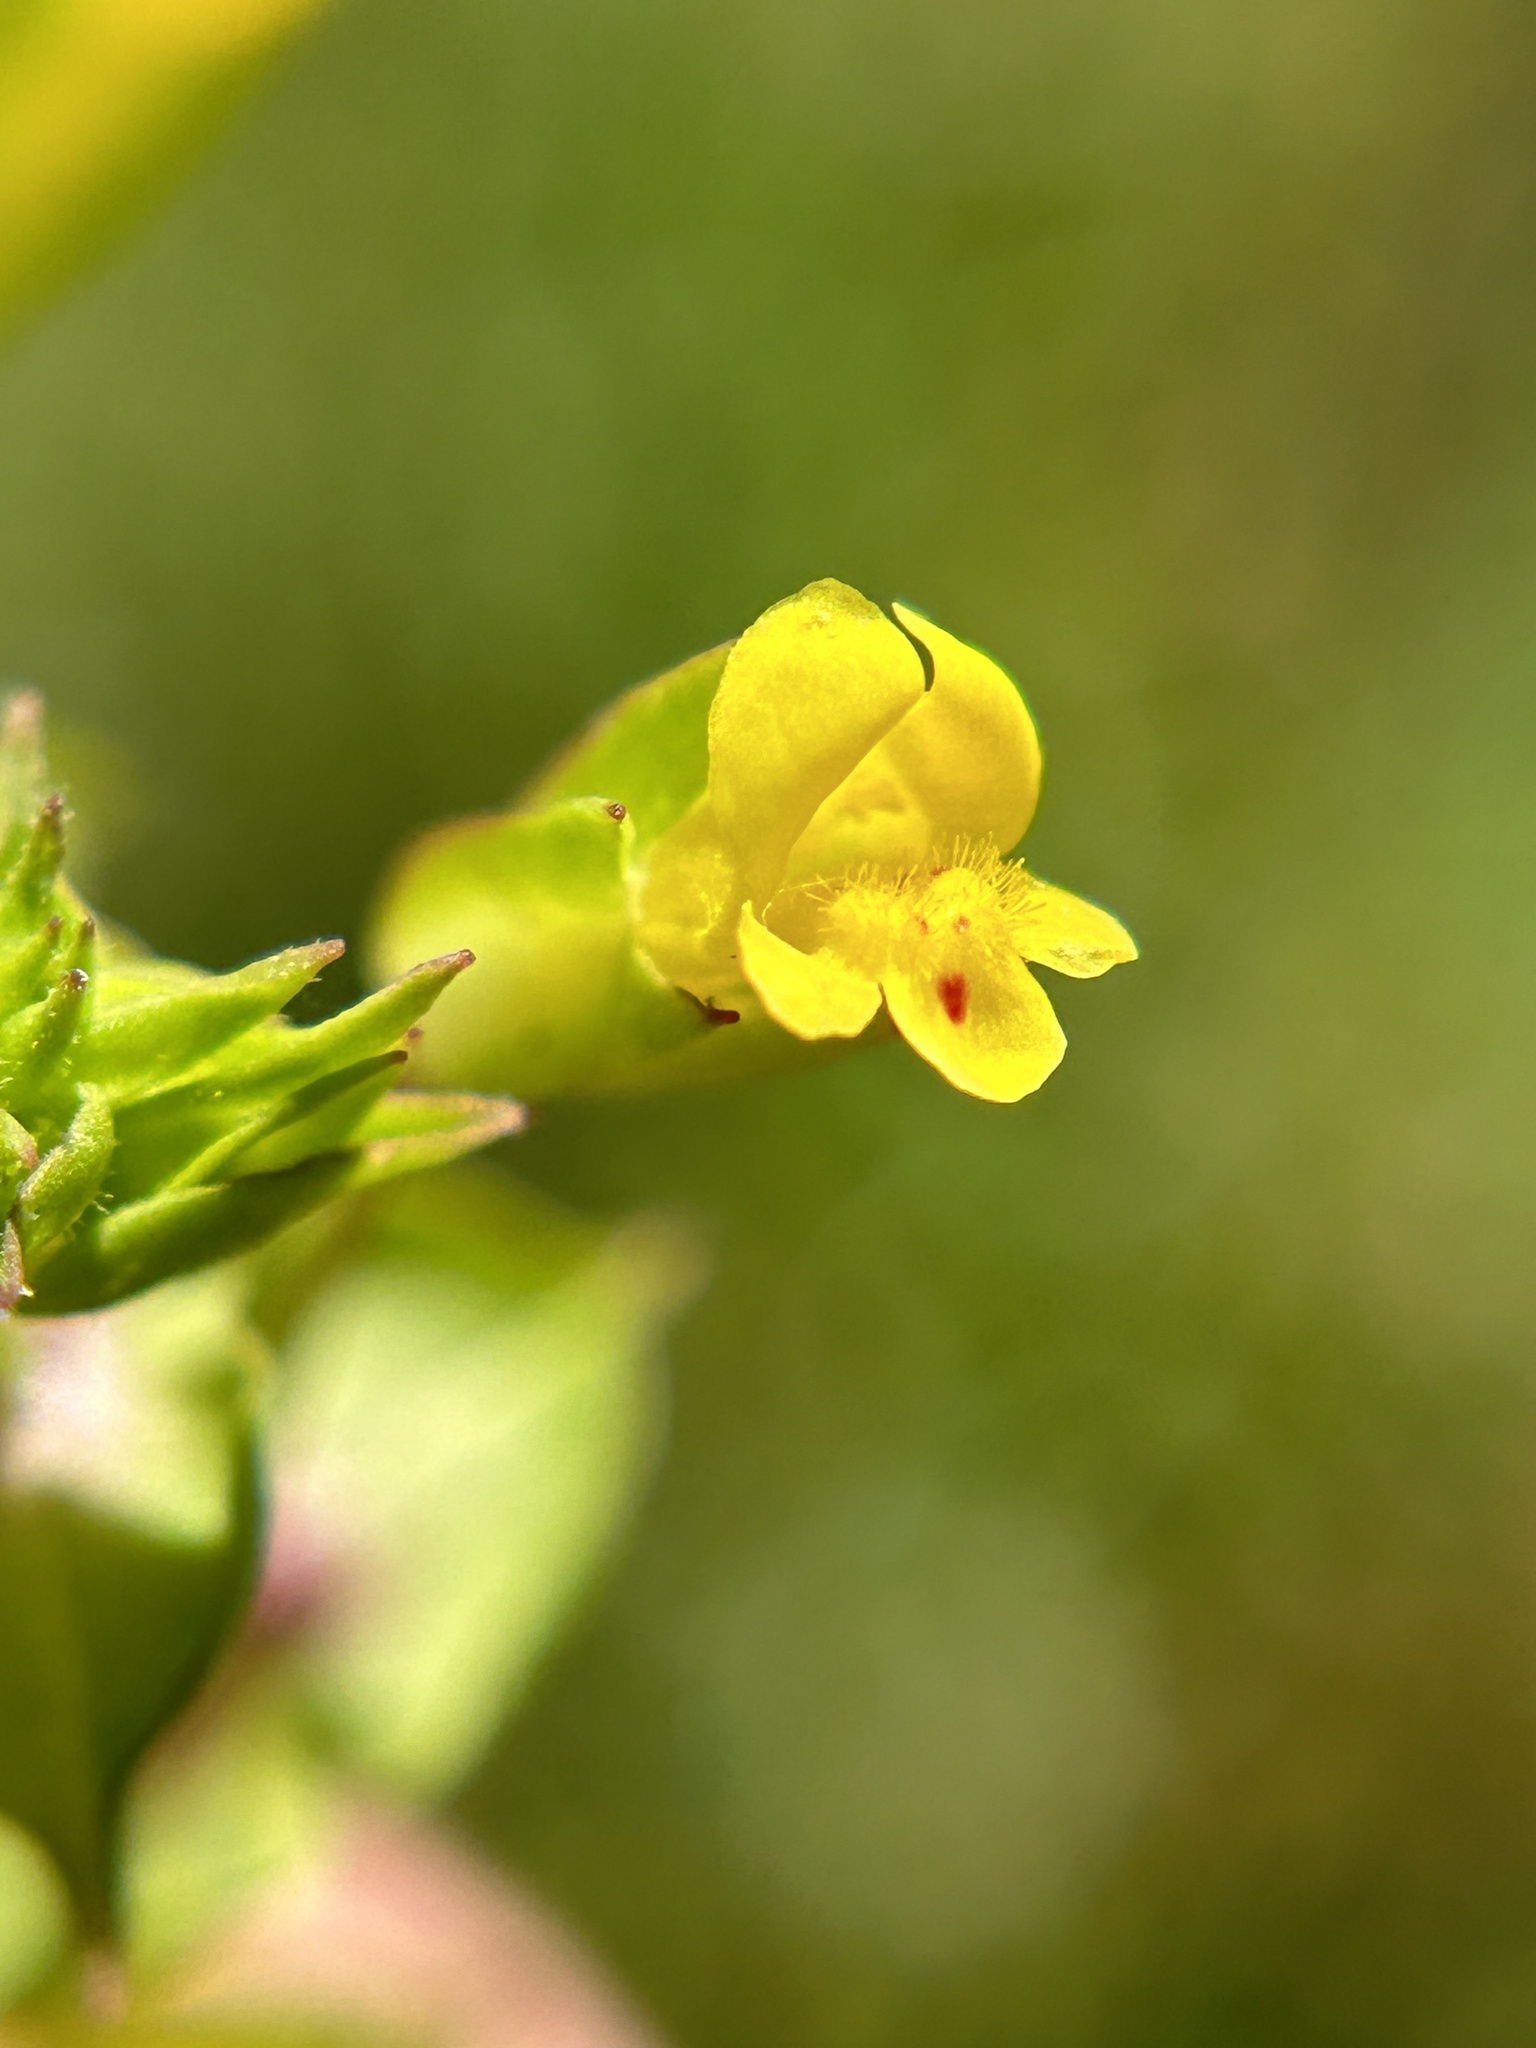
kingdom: Plantae
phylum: Tracheophyta
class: Magnoliopsida
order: Lamiales
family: Phrymaceae
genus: Erythranthe
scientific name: Erythranthe nasuta
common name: Sooke monkeyflower
